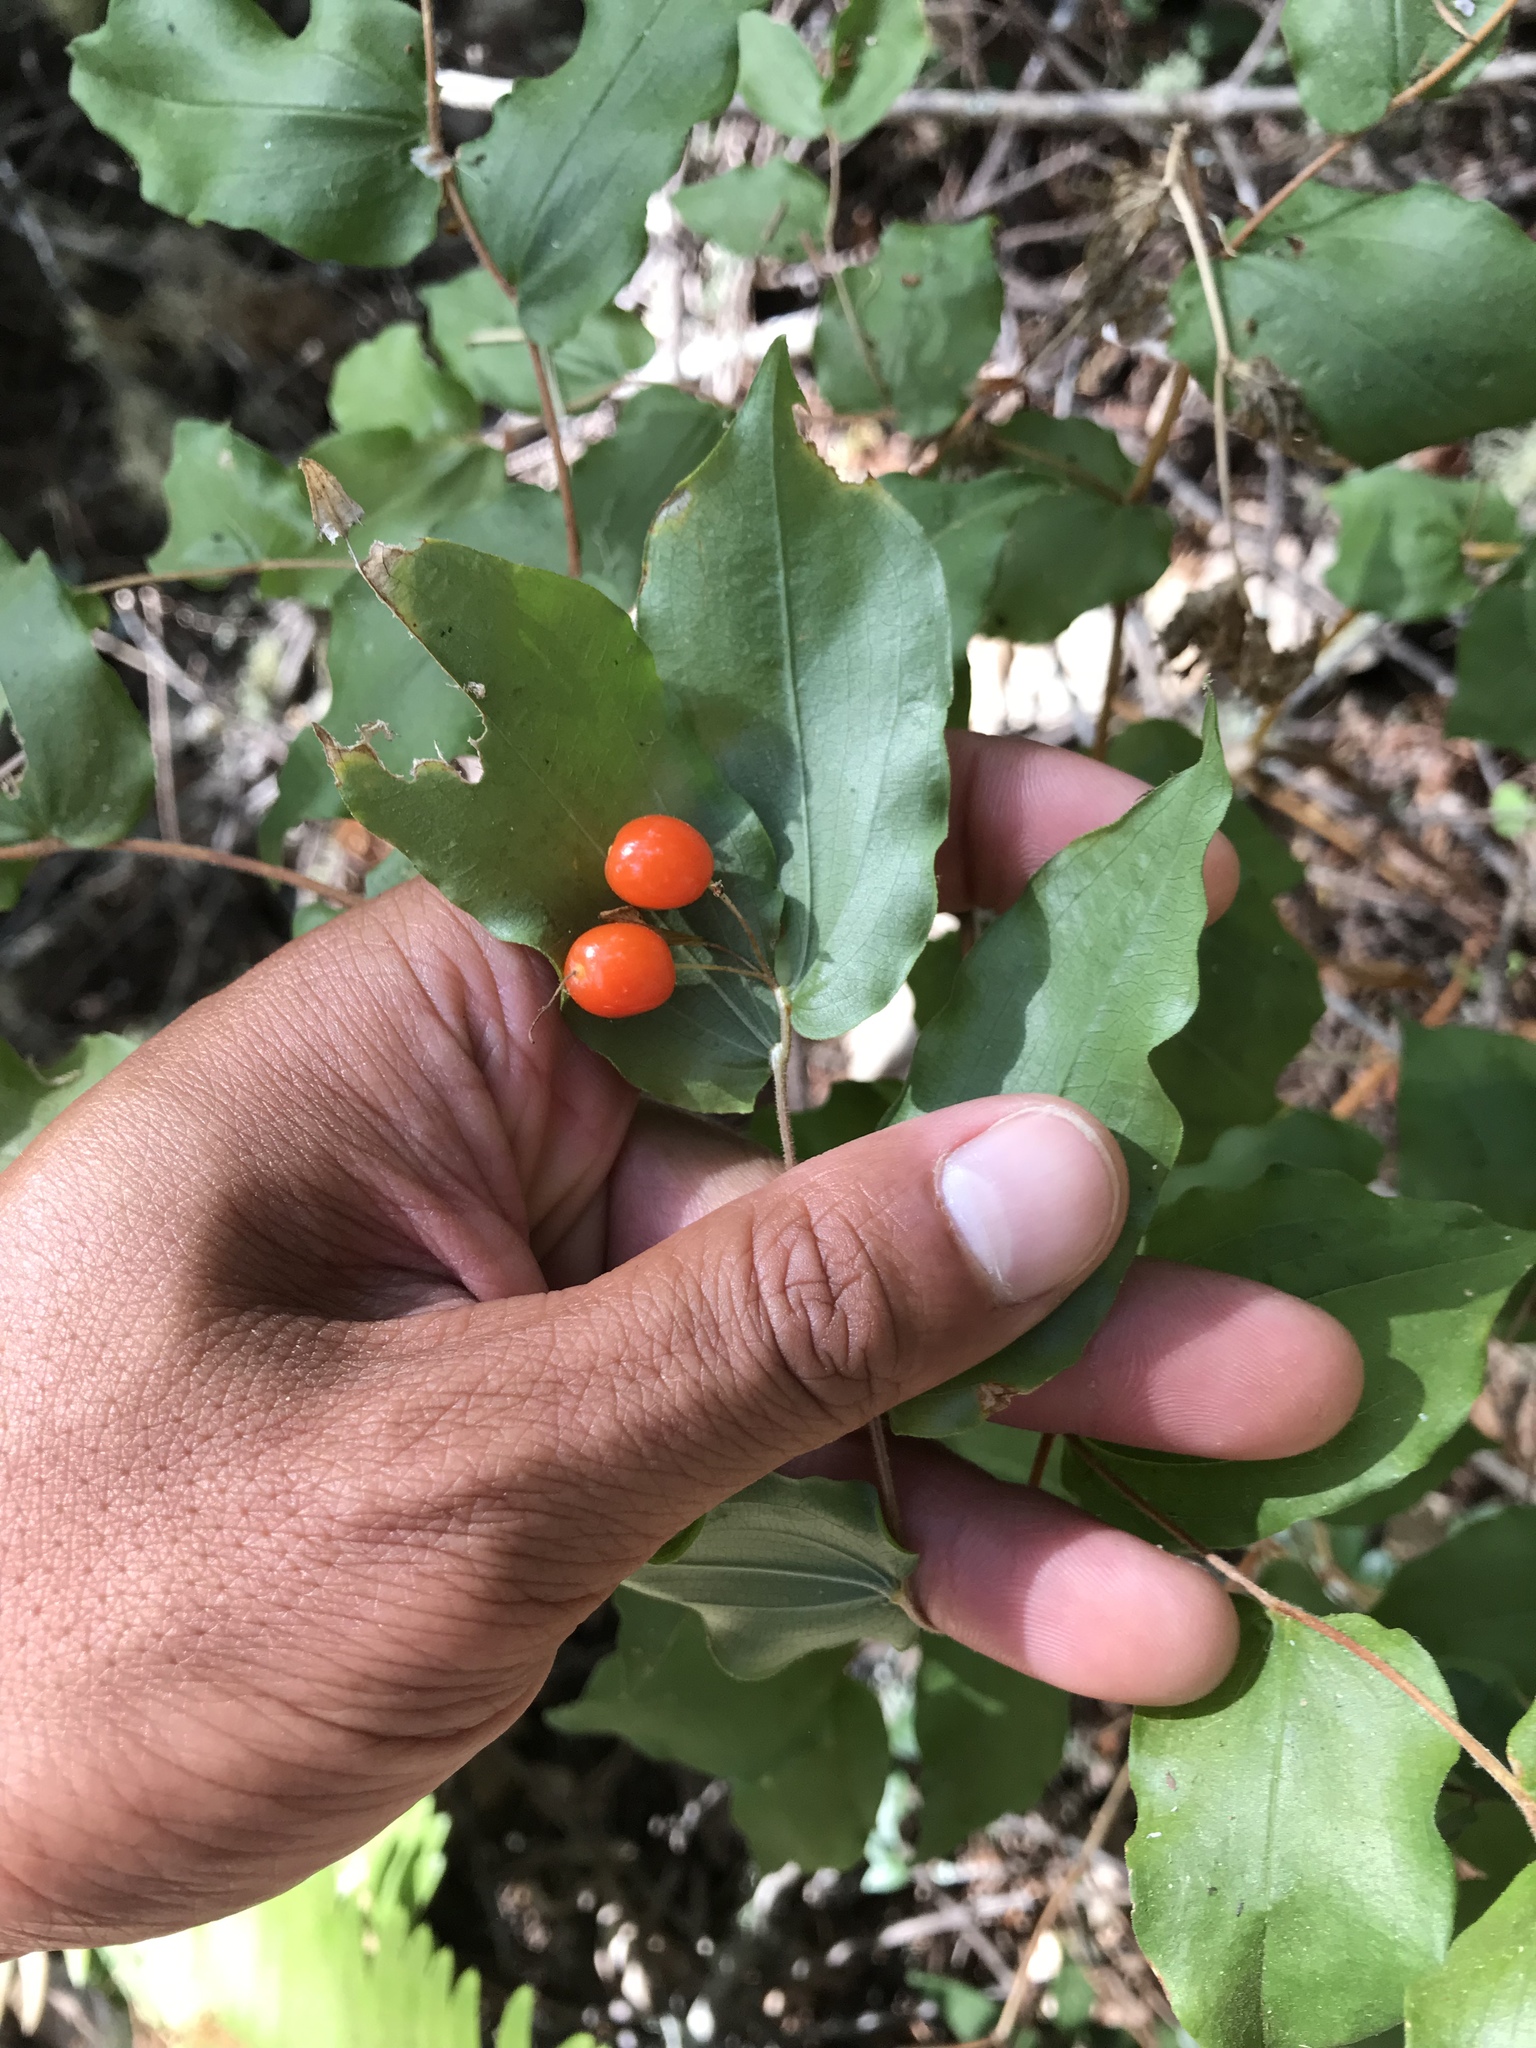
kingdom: Plantae
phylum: Tracheophyta
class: Liliopsida
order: Liliales
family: Liliaceae
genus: Prosartes
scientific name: Prosartes hookeri
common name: Fairy-bells
